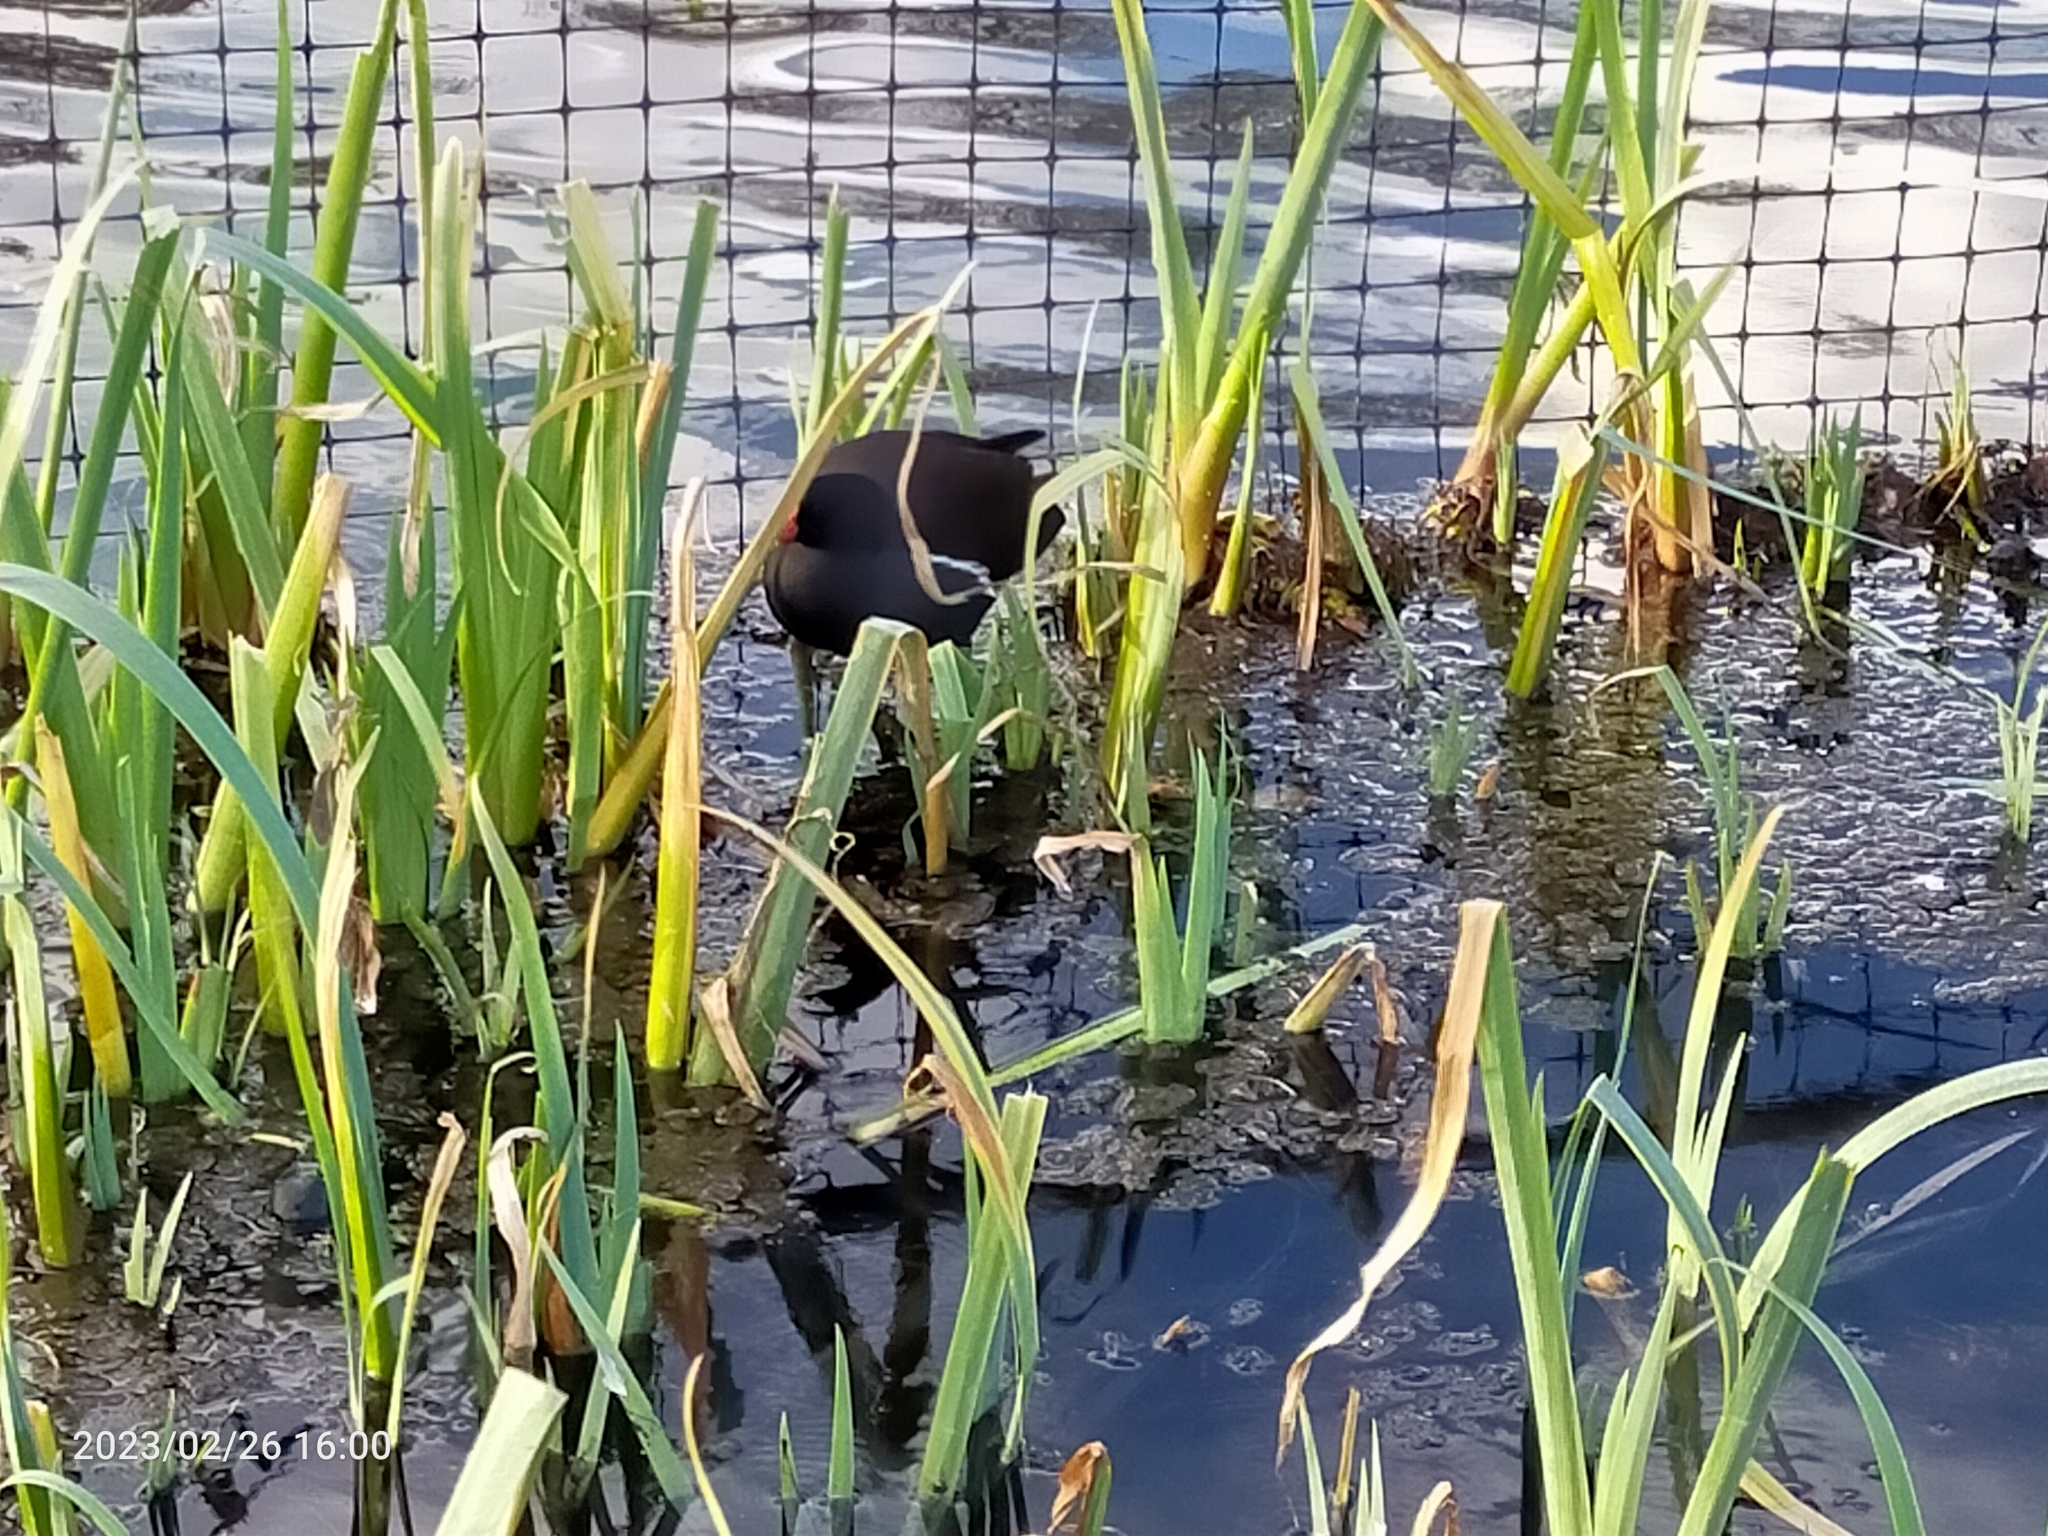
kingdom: Animalia
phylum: Chordata
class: Aves
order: Gruiformes
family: Rallidae
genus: Gallinula
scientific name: Gallinula chloropus
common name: Common moorhen
